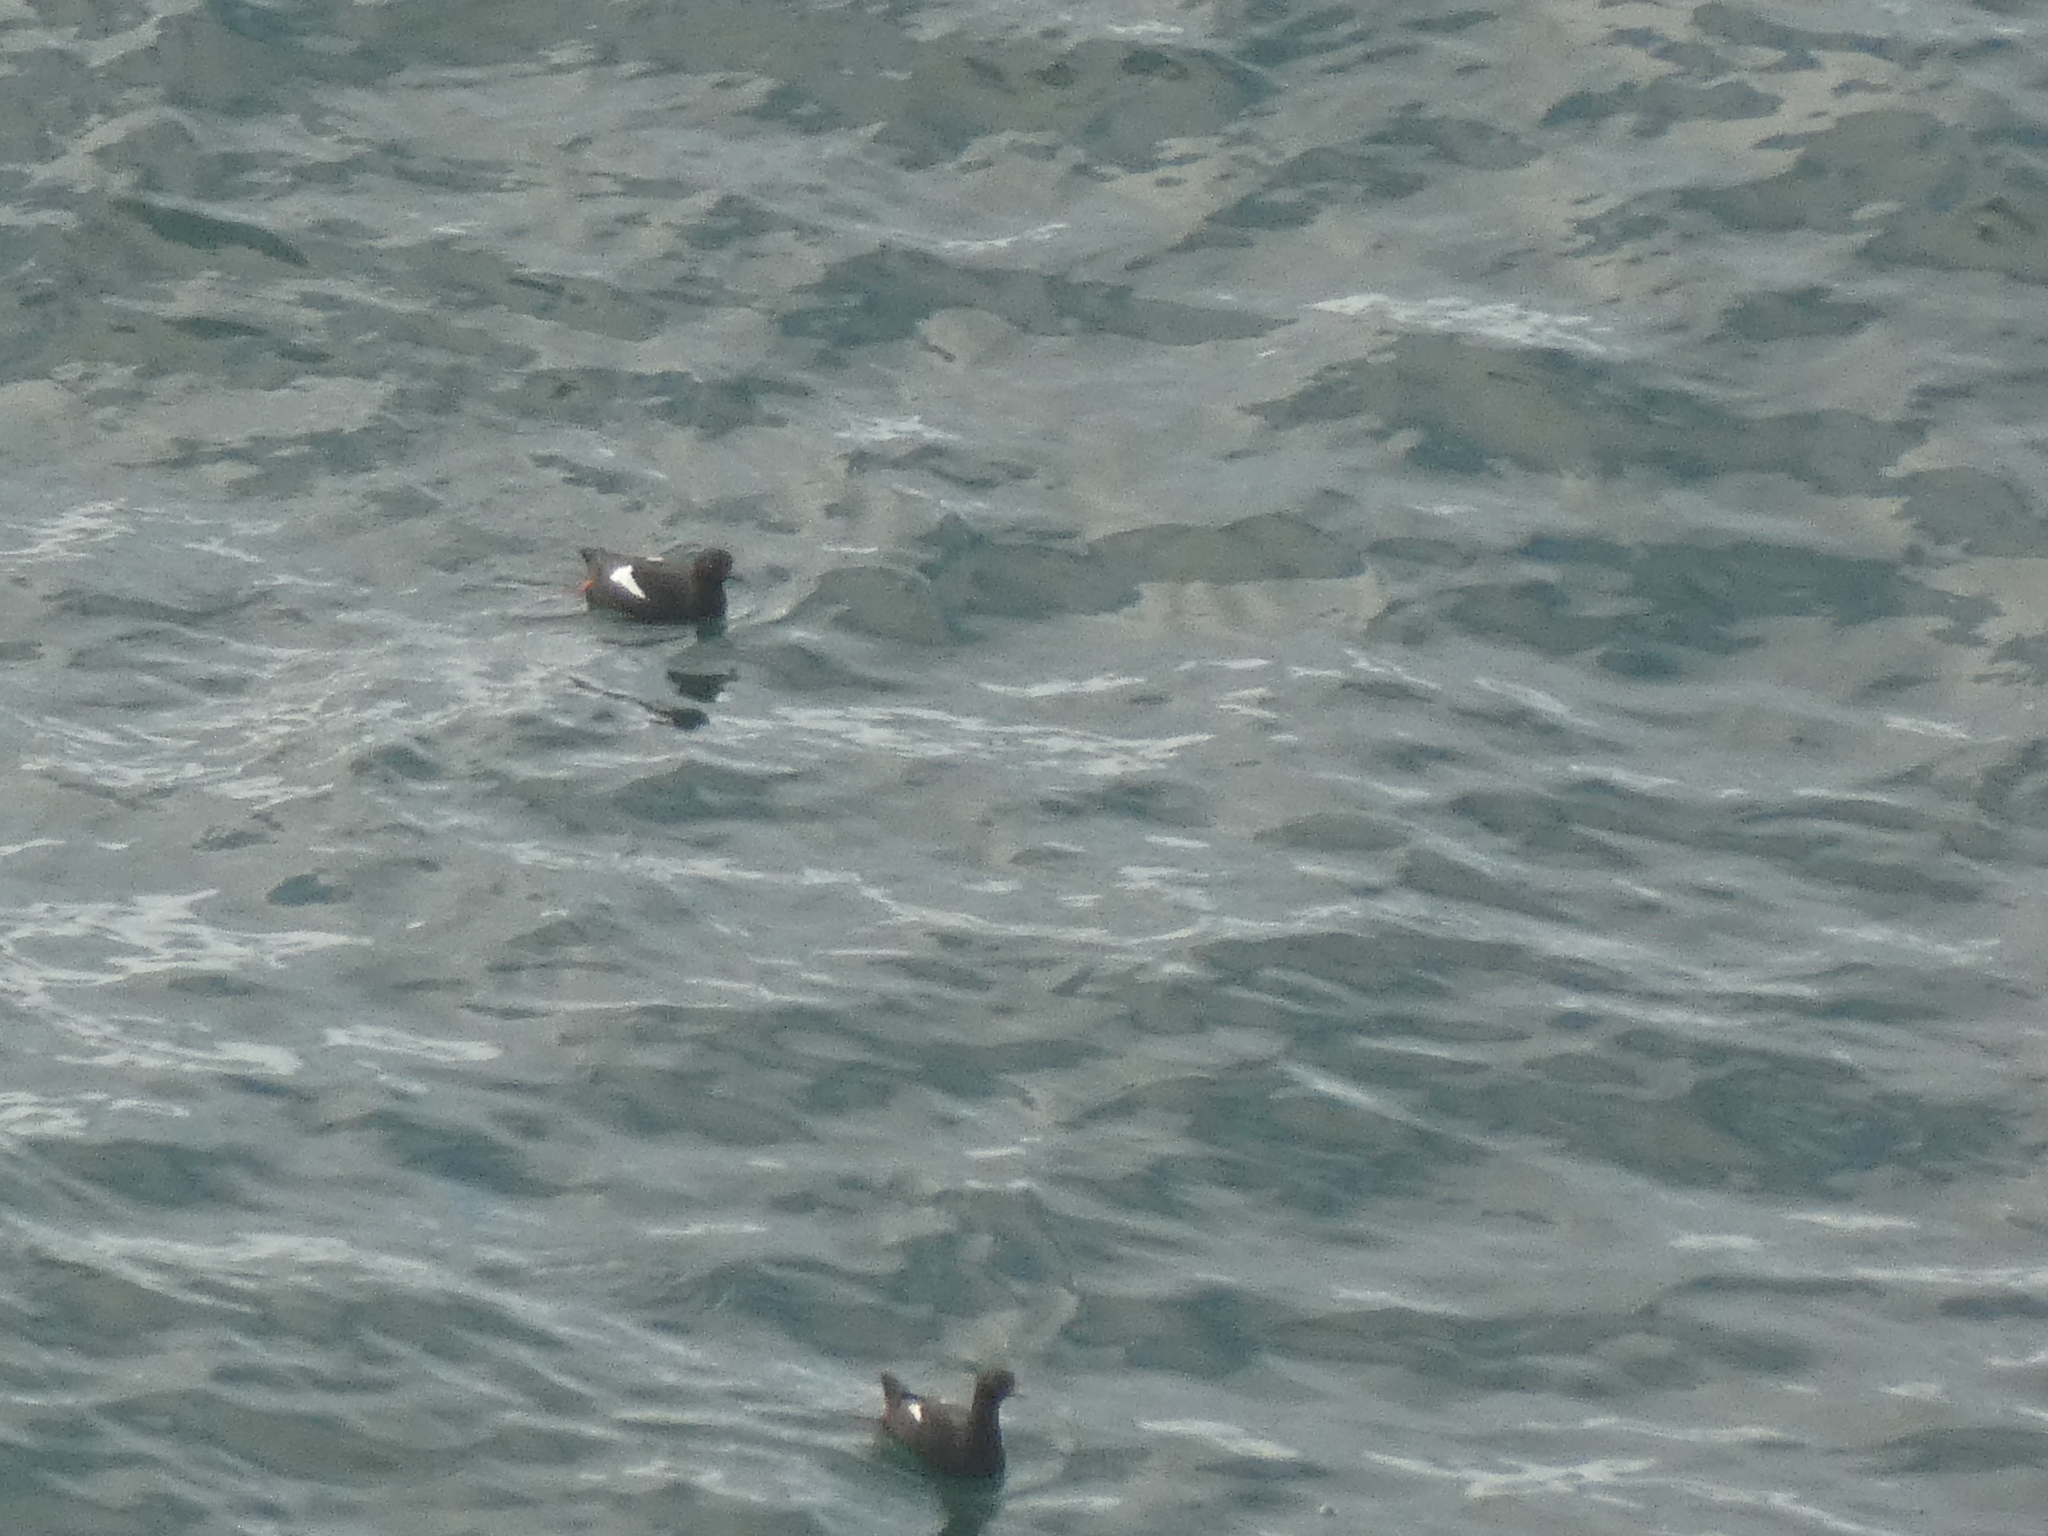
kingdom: Animalia
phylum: Chordata
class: Aves
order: Charadriiformes
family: Alcidae
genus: Cepphus
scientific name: Cepphus columba
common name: Pigeon guillemot
